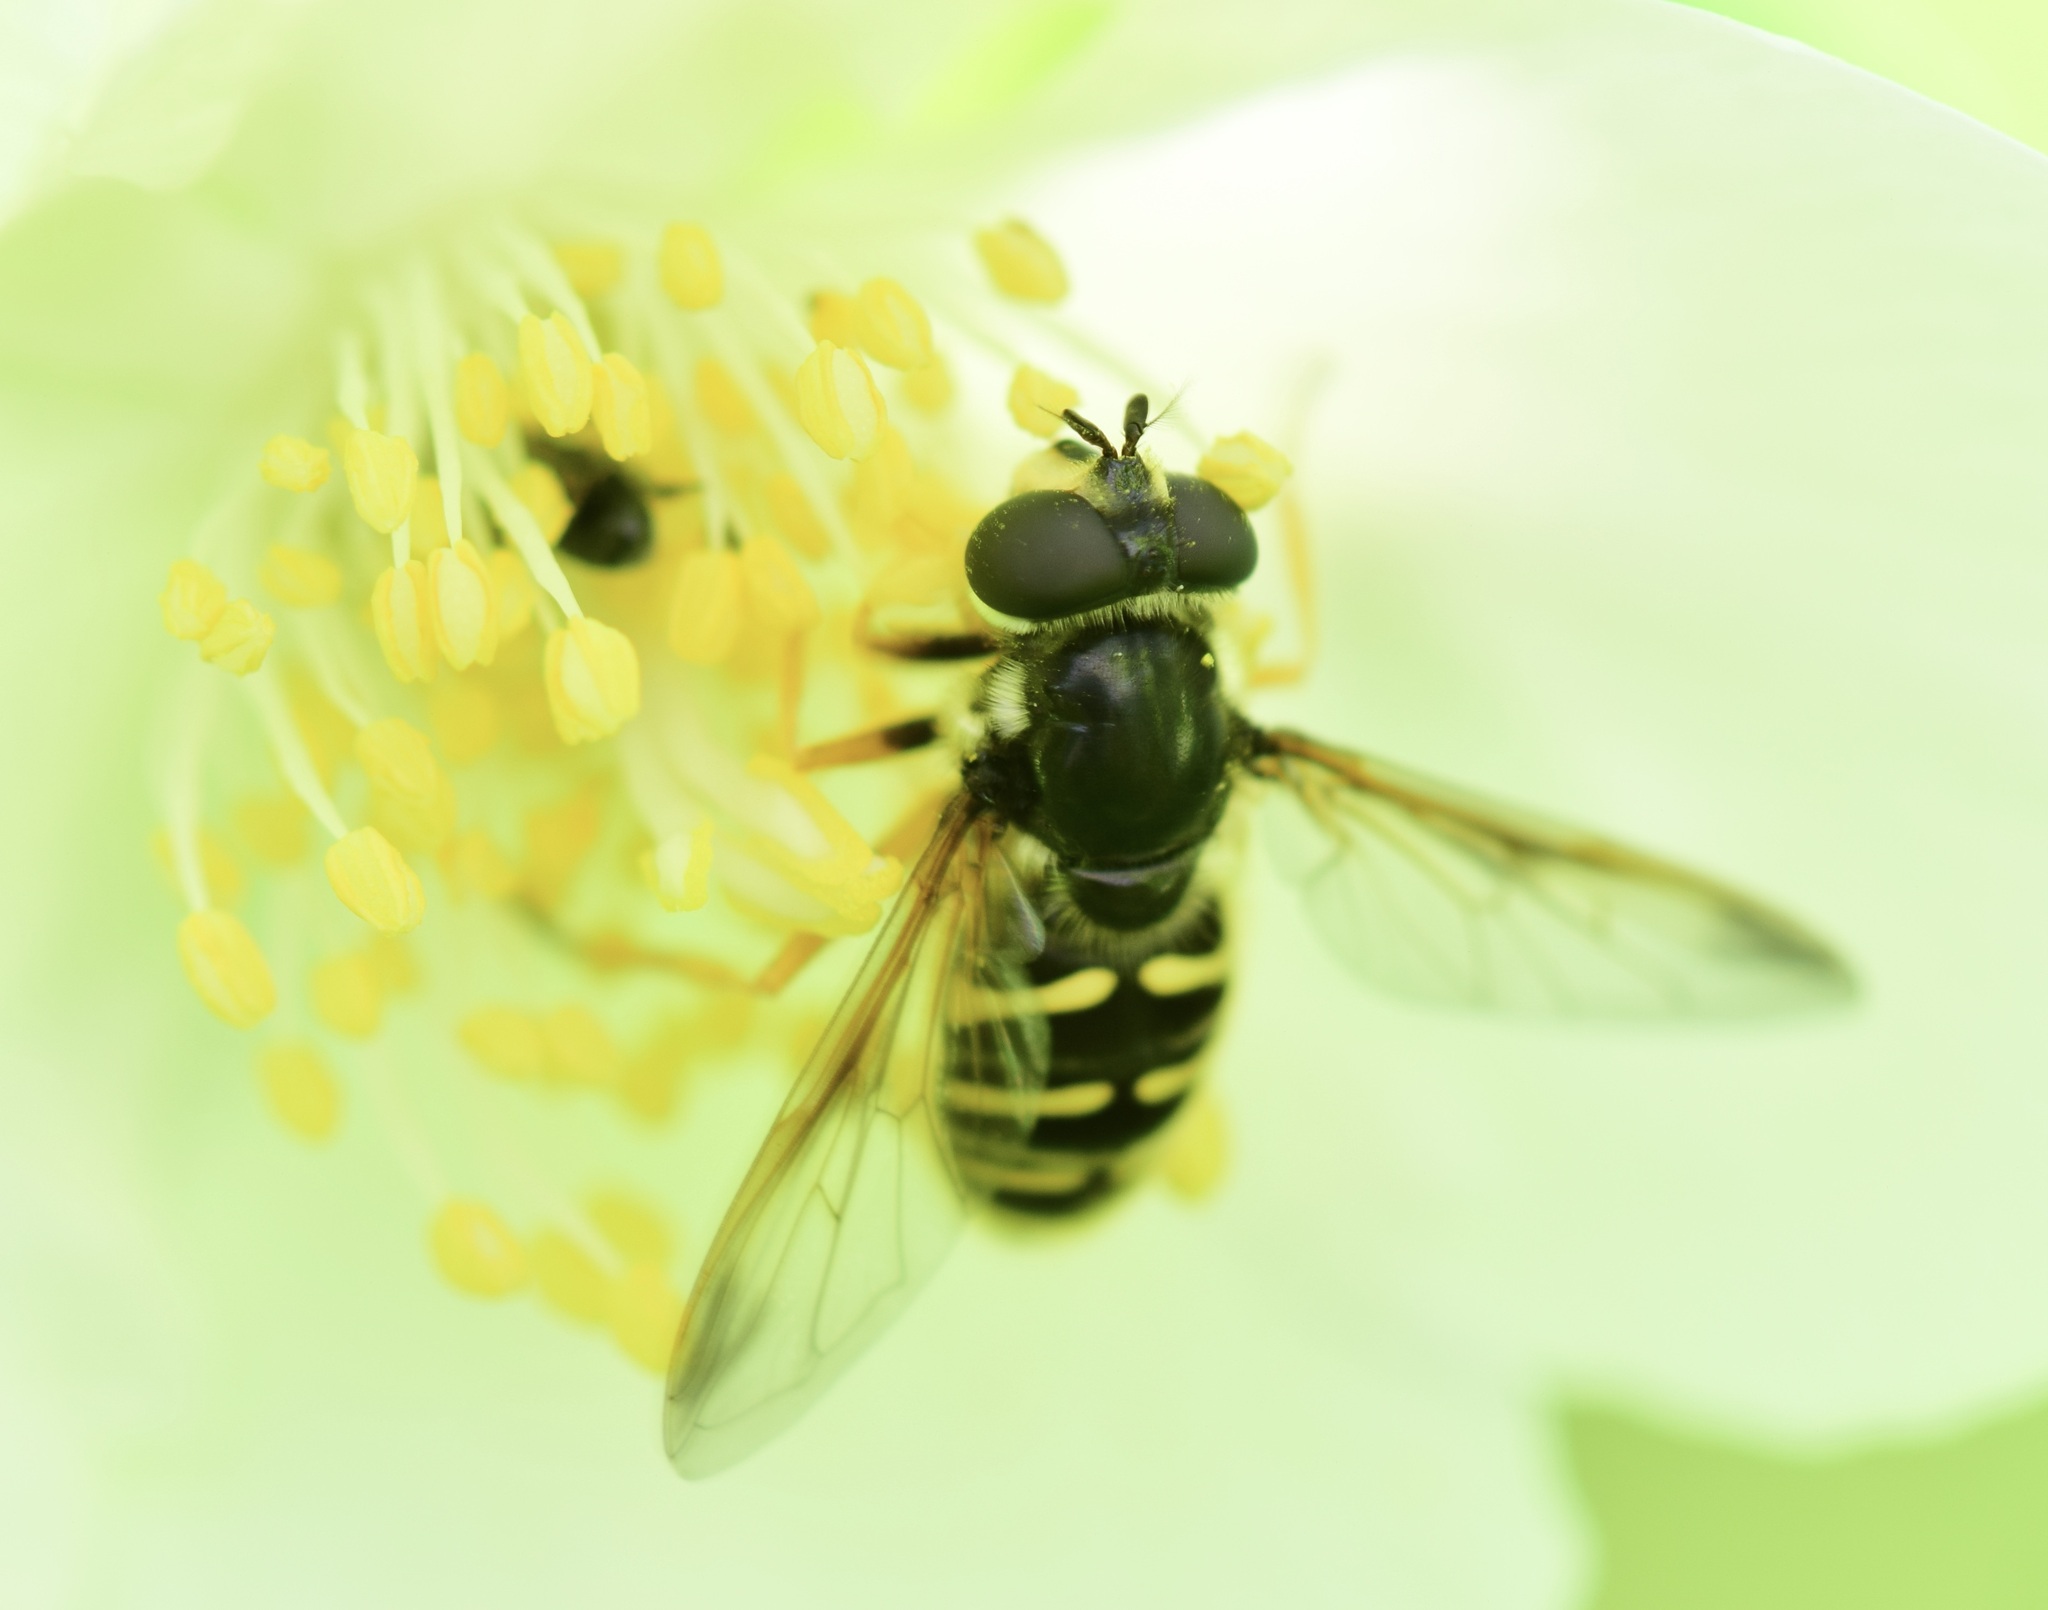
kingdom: Animalia
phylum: Arthropoda
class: Insecta
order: Diptera
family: Syrphidae
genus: Sericomyia
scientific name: Sericomyia chrysotoxoides
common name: Oblique-banded pond fly
